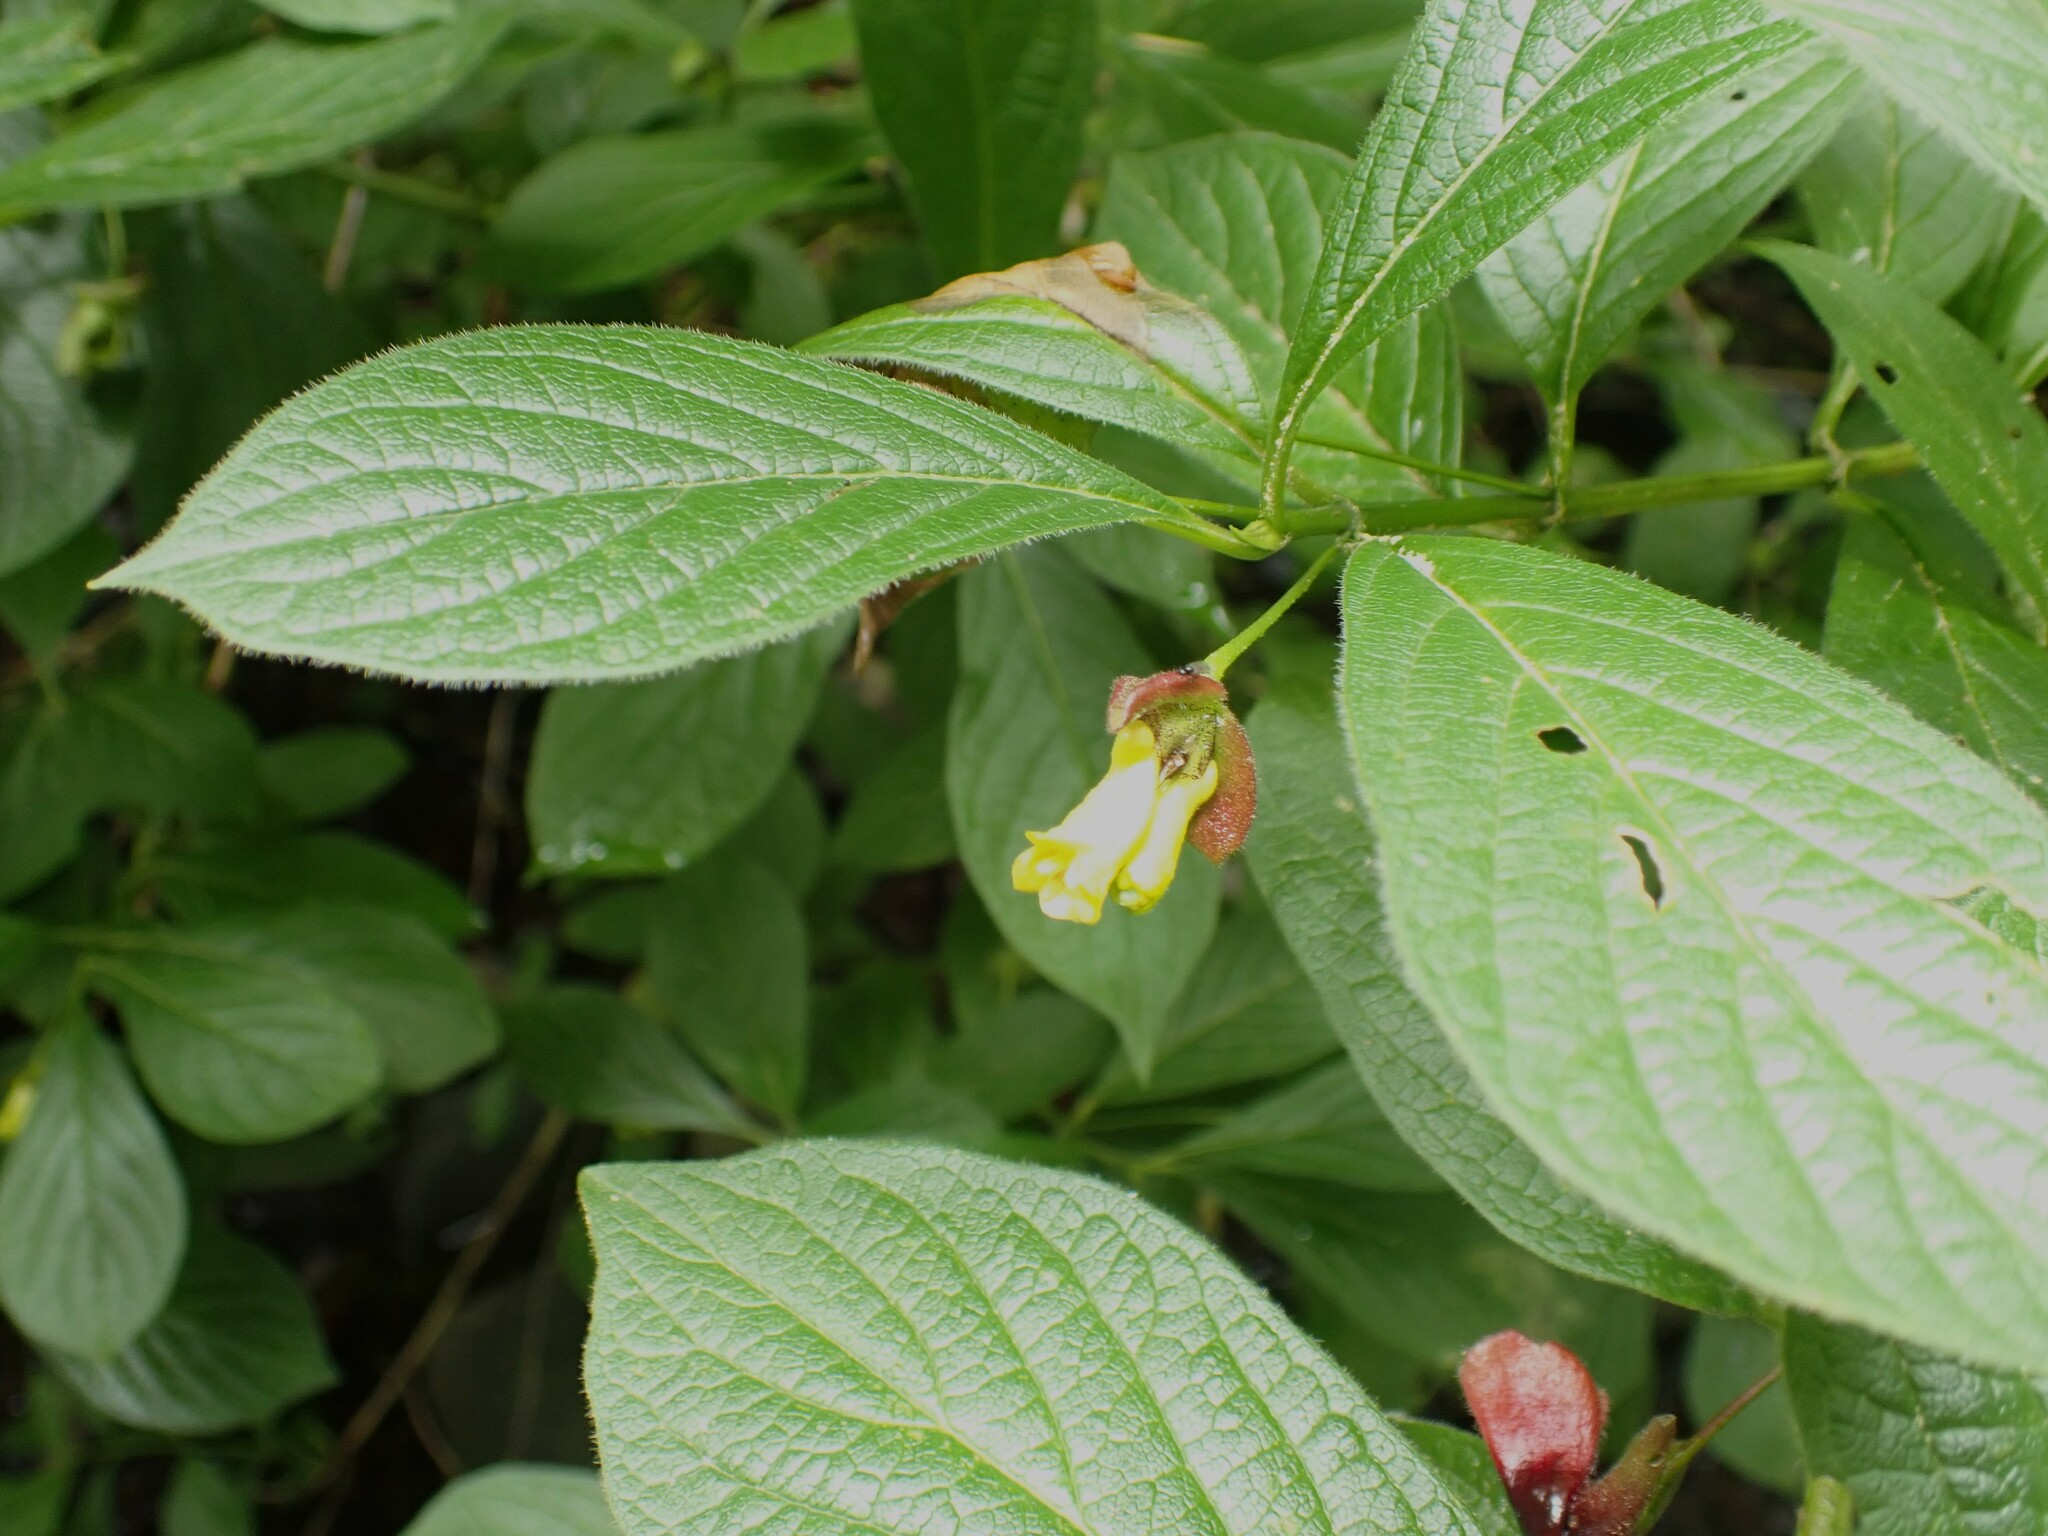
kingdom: Plantae
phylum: Tracheophyta
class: Magnoliopsida
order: Dipsacales
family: Caprifoliaceae
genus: Lonicera
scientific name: Lonicera involucrata
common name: Californian honeysuckle
